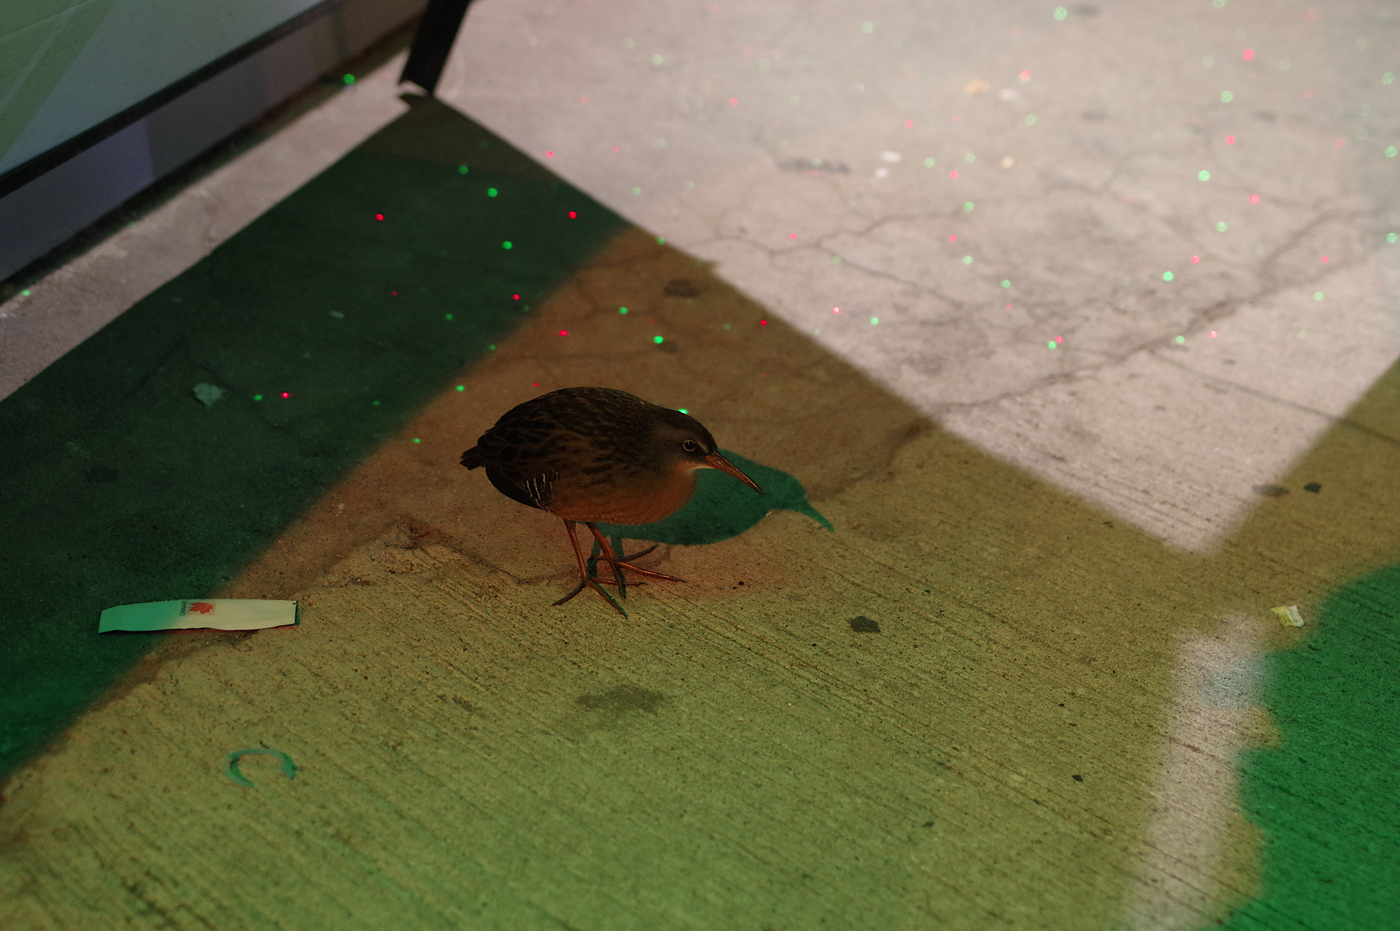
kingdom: Animalia
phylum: Chordata
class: Aves
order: Gruiformes
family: Rallidae
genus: Rallus
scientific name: Rallus limicola
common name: Virginia rail
